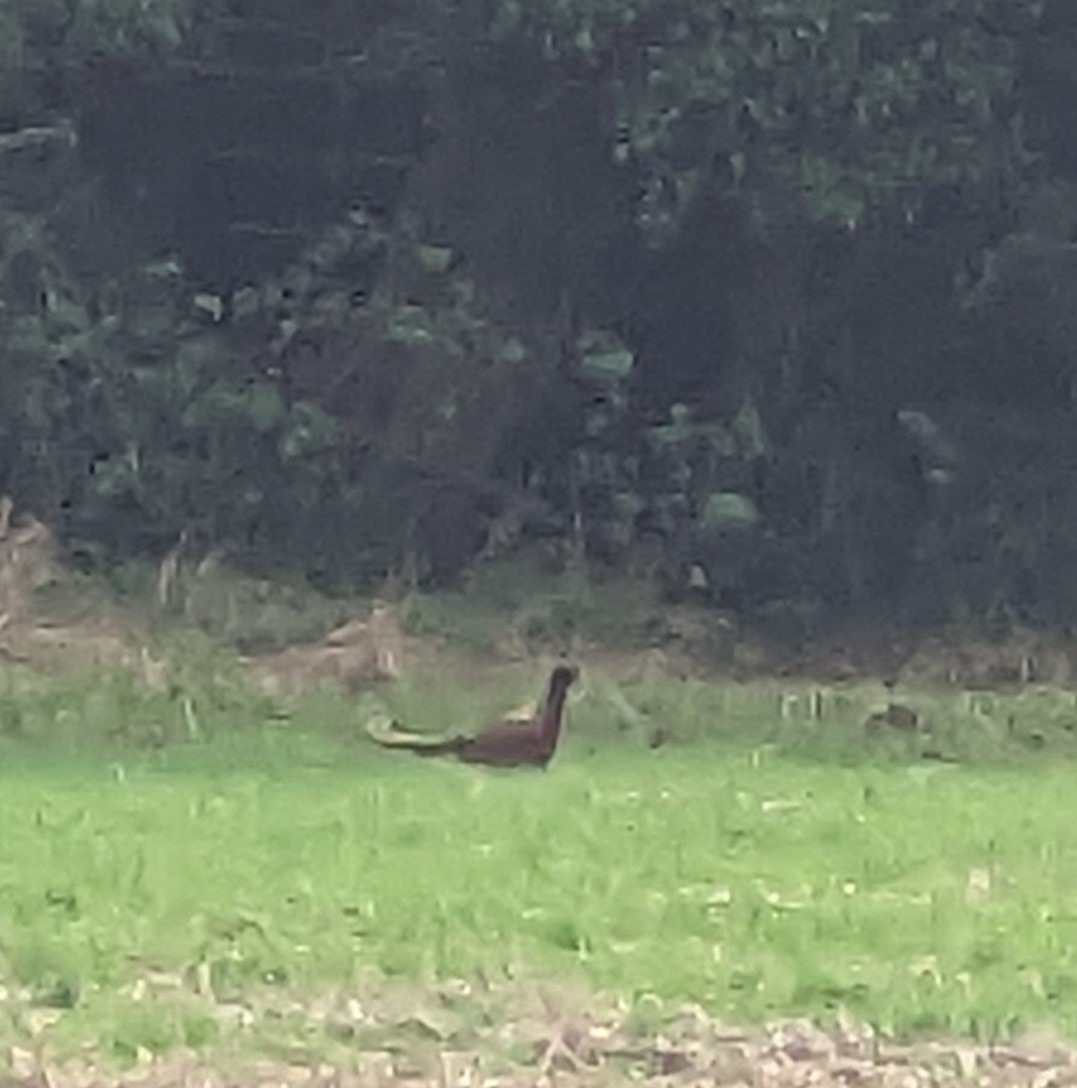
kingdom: Animalia
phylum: Chordata
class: Aves
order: Galliformes
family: Phasianidae
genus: Phasianus
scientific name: Phasianus colchicus
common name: Common pheasant
